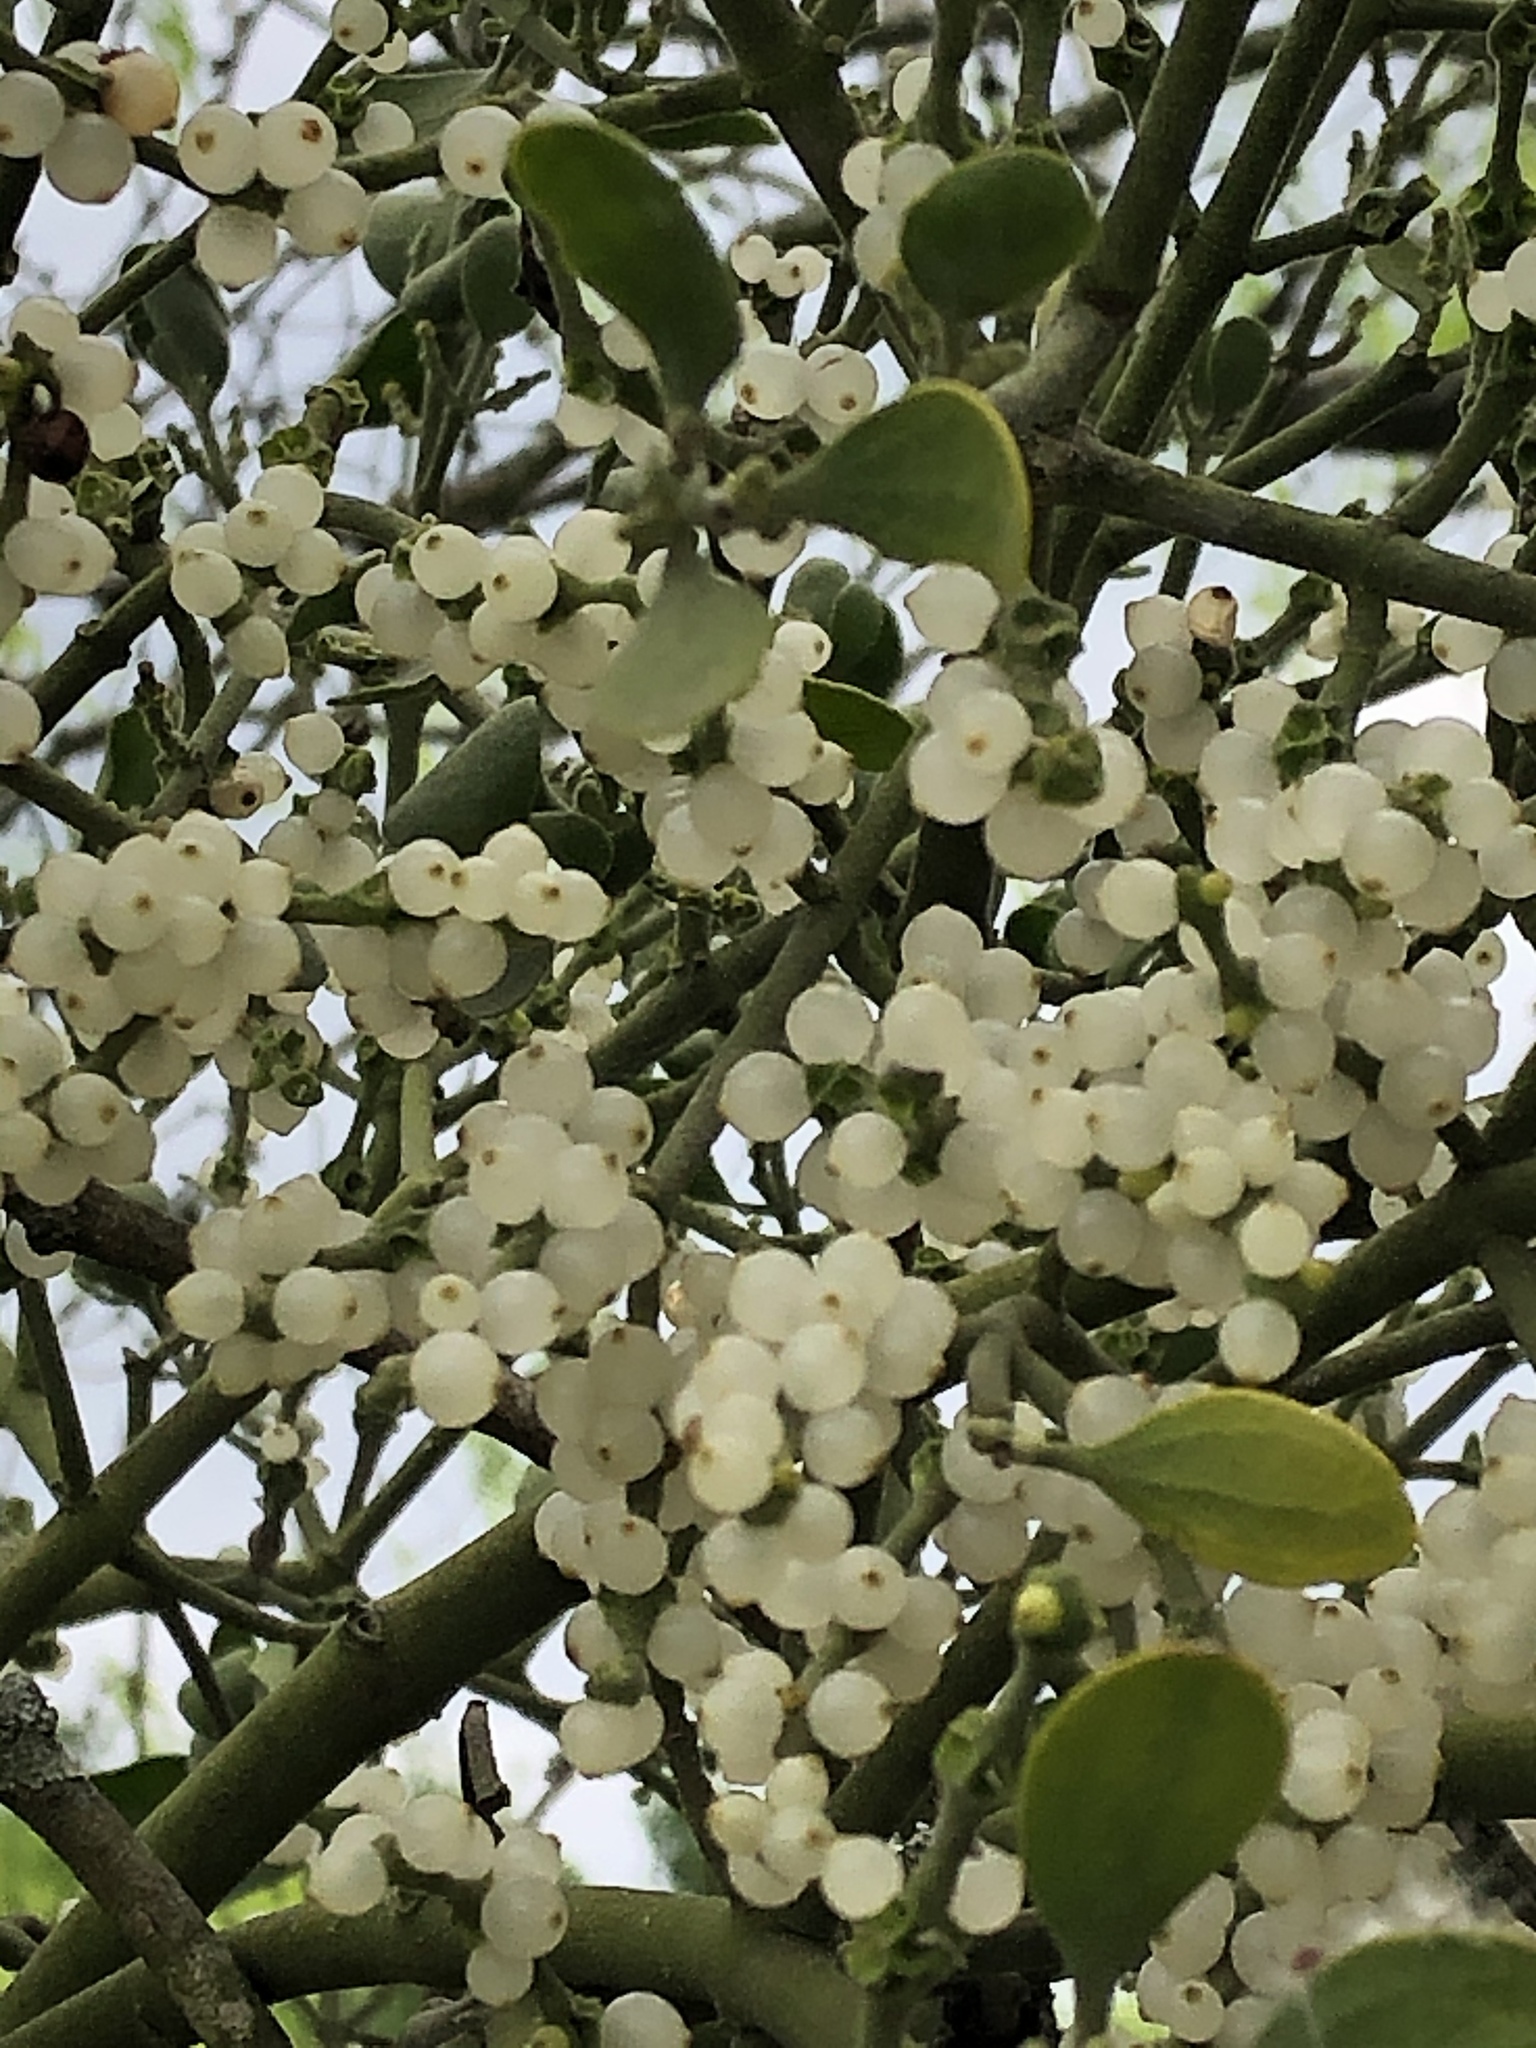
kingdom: Plantae
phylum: Tracheophyta
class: Magnoliopsida
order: Santalales
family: Viscaceae
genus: Phoradendron
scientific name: Phoradendron leucarpum
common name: Pacific mistletoe
